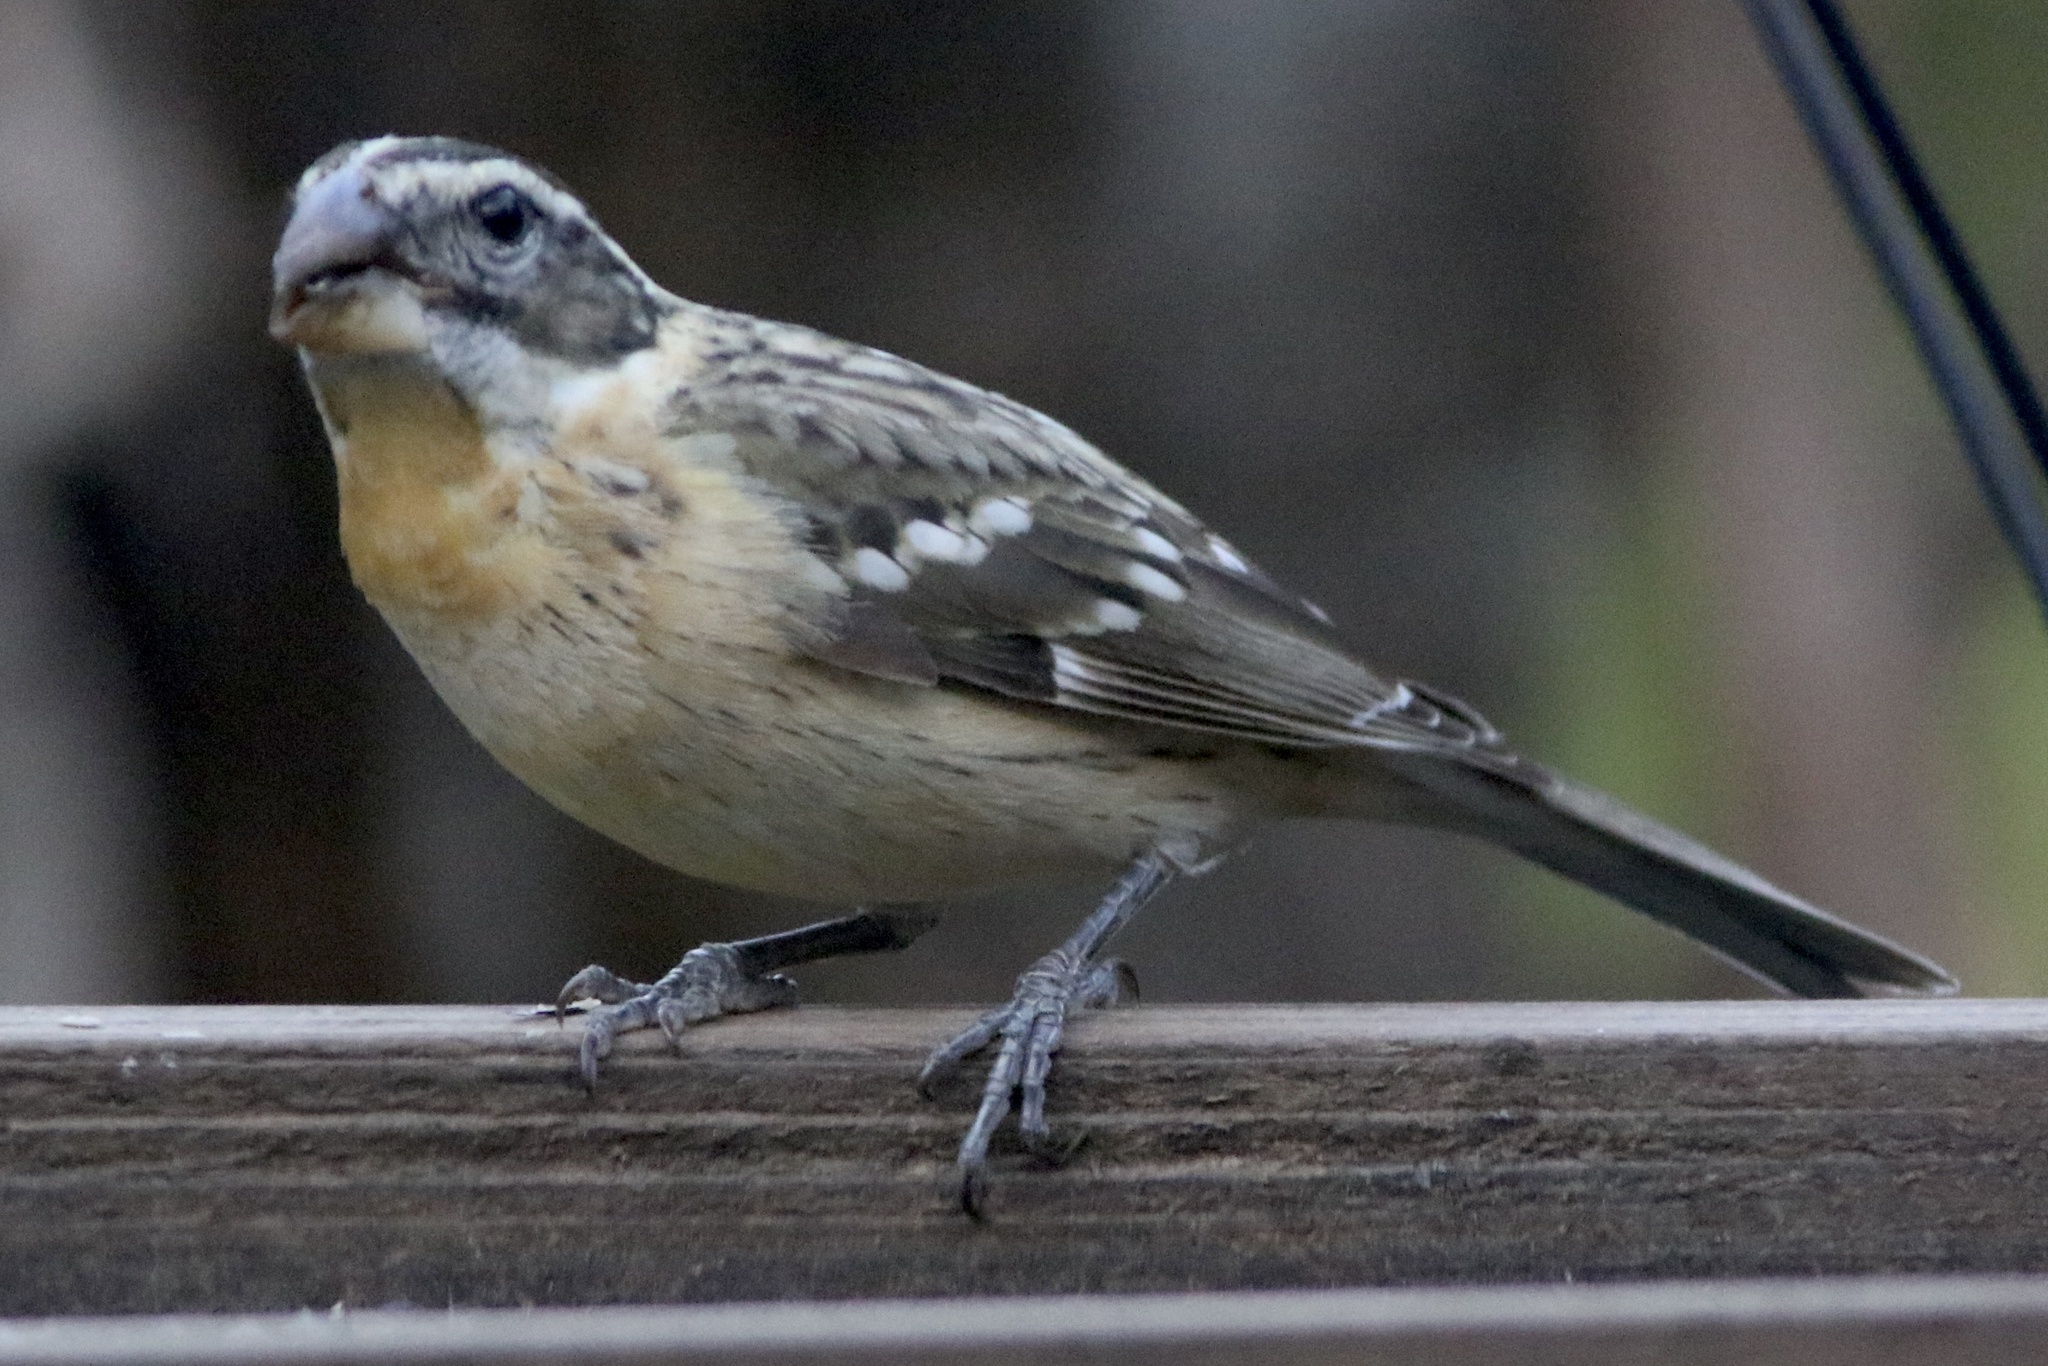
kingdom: Animalia
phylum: Chordata
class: Aves
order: Passeriformes
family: Cardinalidae
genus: Pheucticus
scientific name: Pheucticus melanocephalus
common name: Black-headed grosbeak
